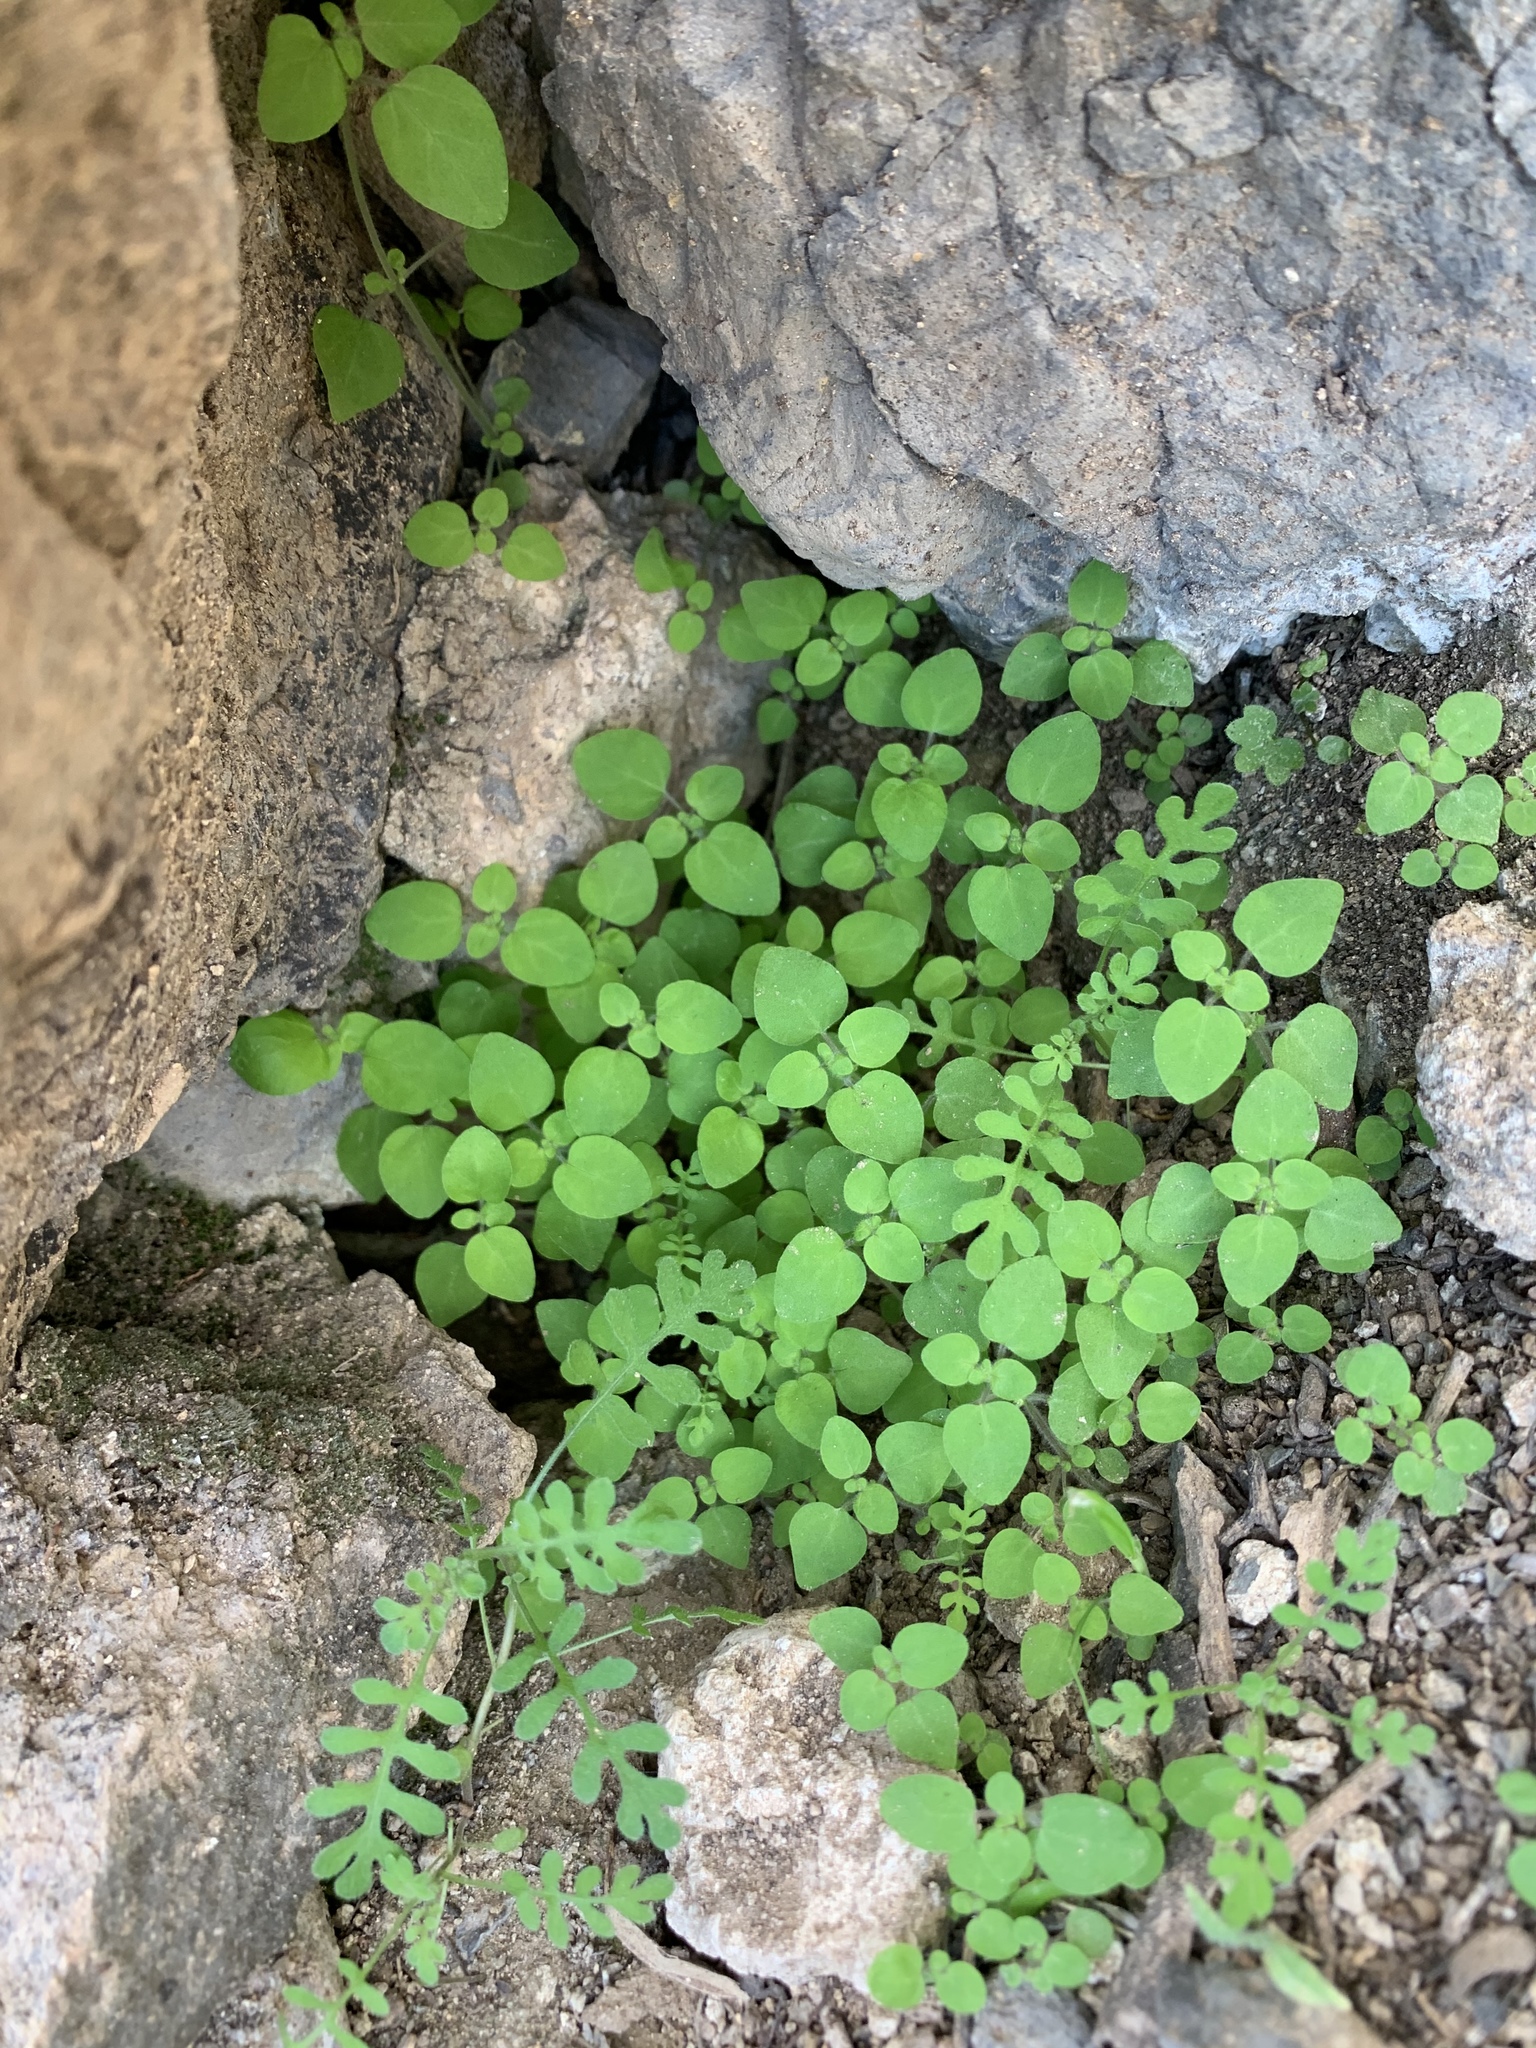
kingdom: Plantae
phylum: Tracheophyta
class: Magnoliopsida
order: Boraginales
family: Hydrophyllaceae
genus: Pholistoma
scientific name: Pholistoma auritum
